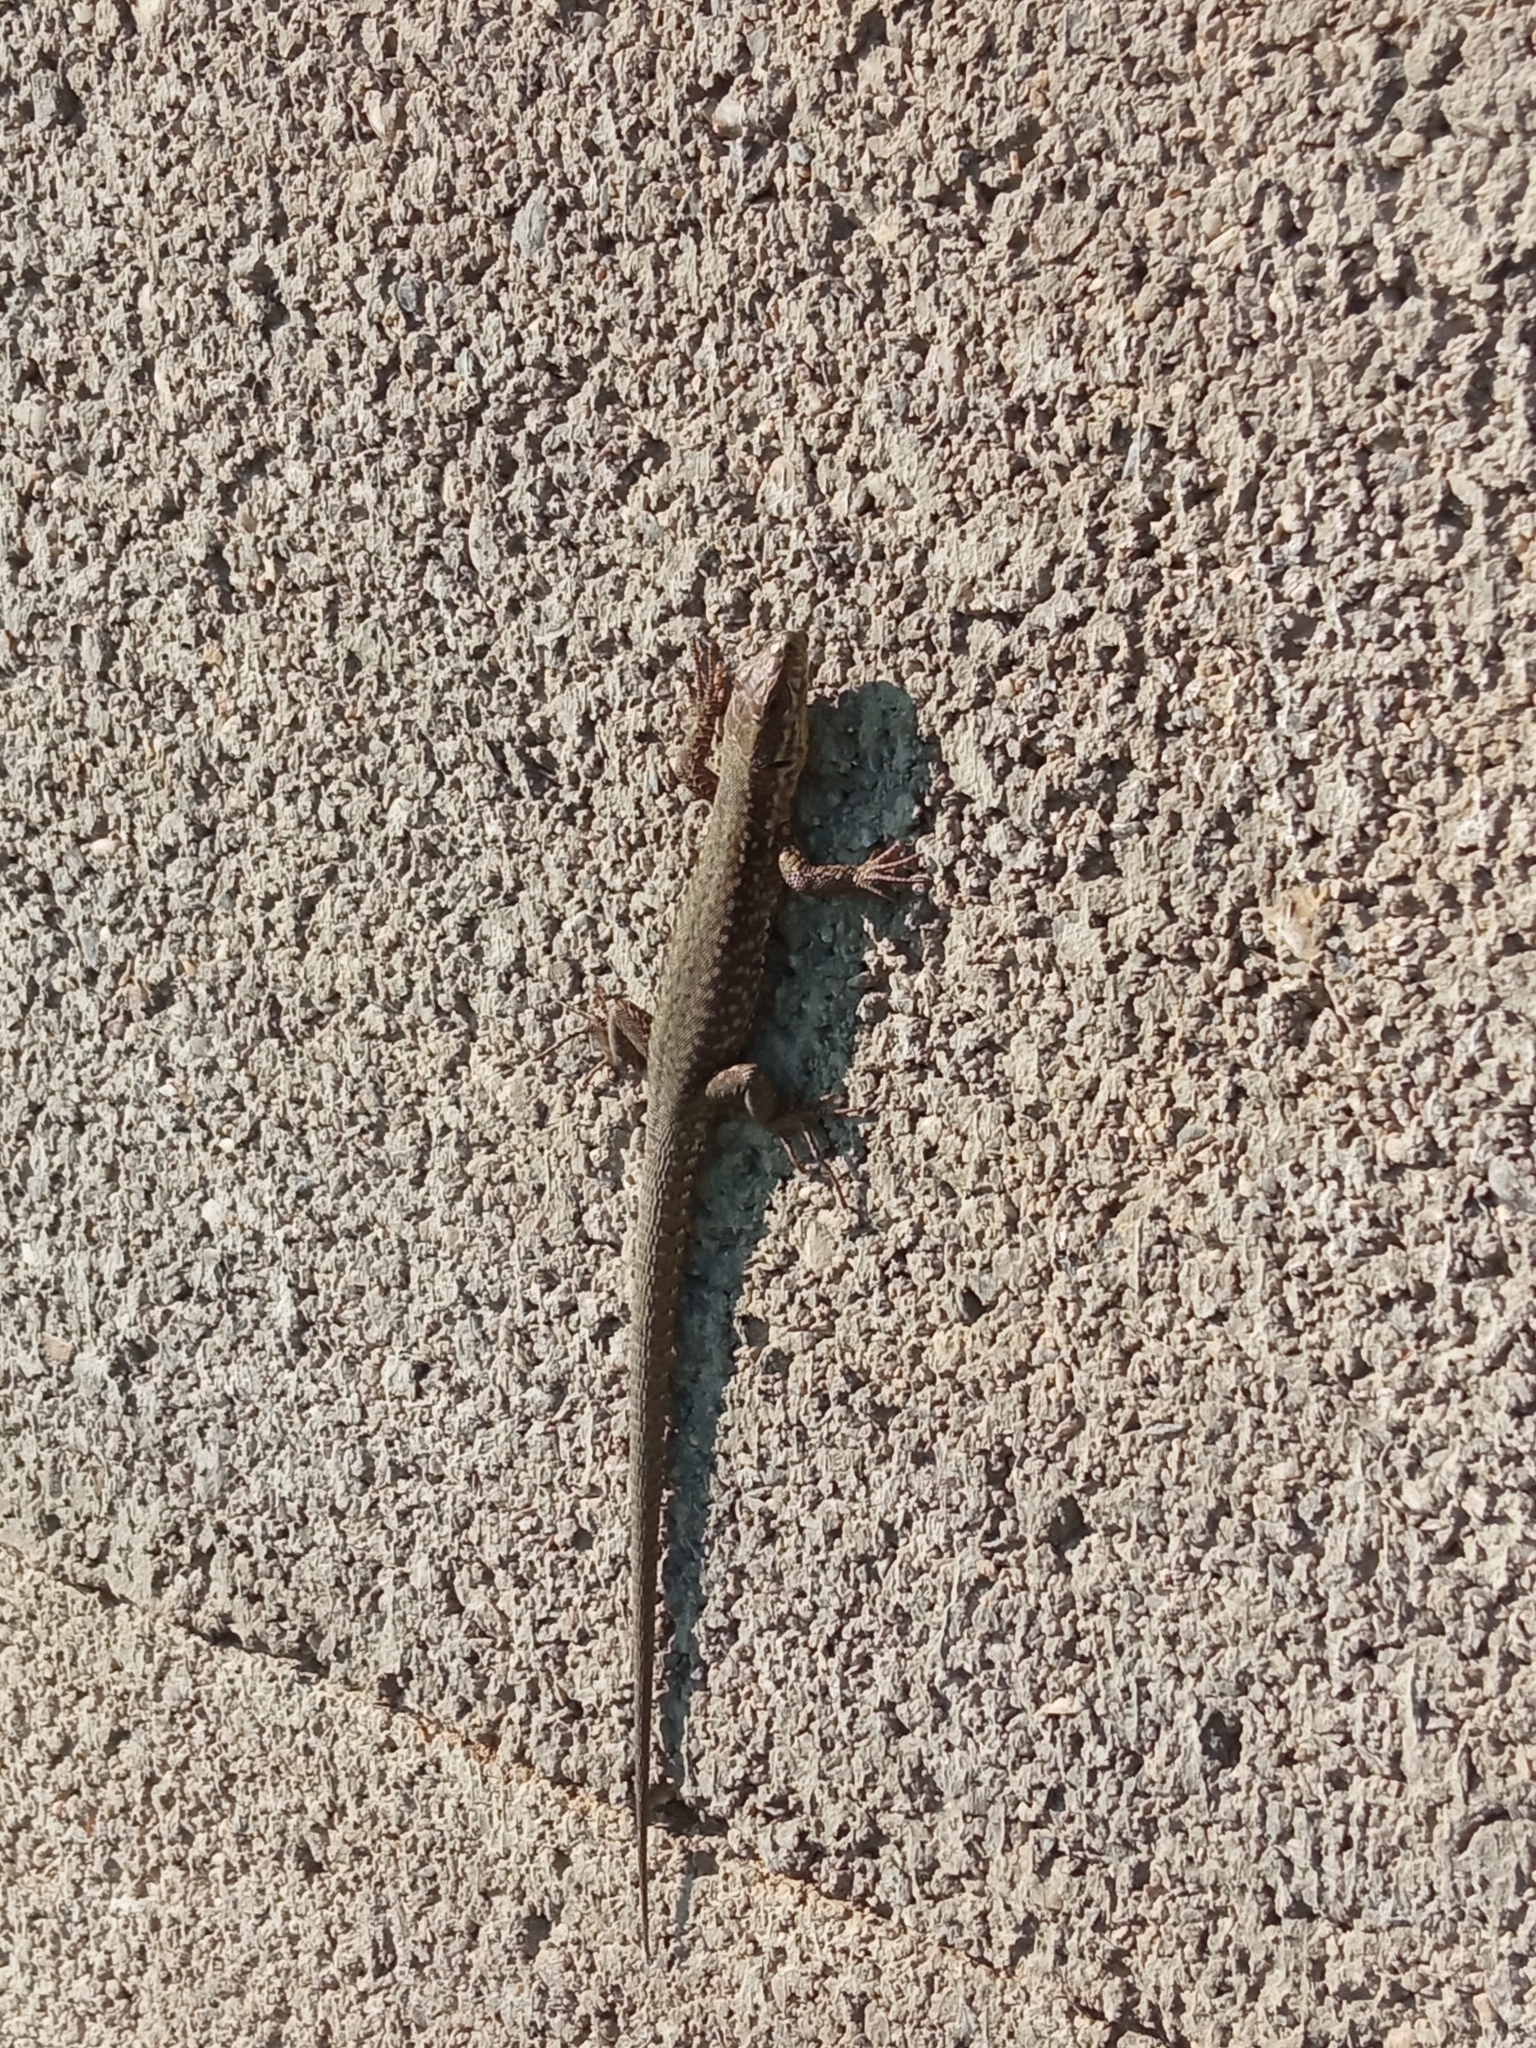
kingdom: Animalia
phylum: Chordata
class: Squamata
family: Lacertidae
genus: Podarcis
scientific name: Podarcis muralis
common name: Common wall lizard
